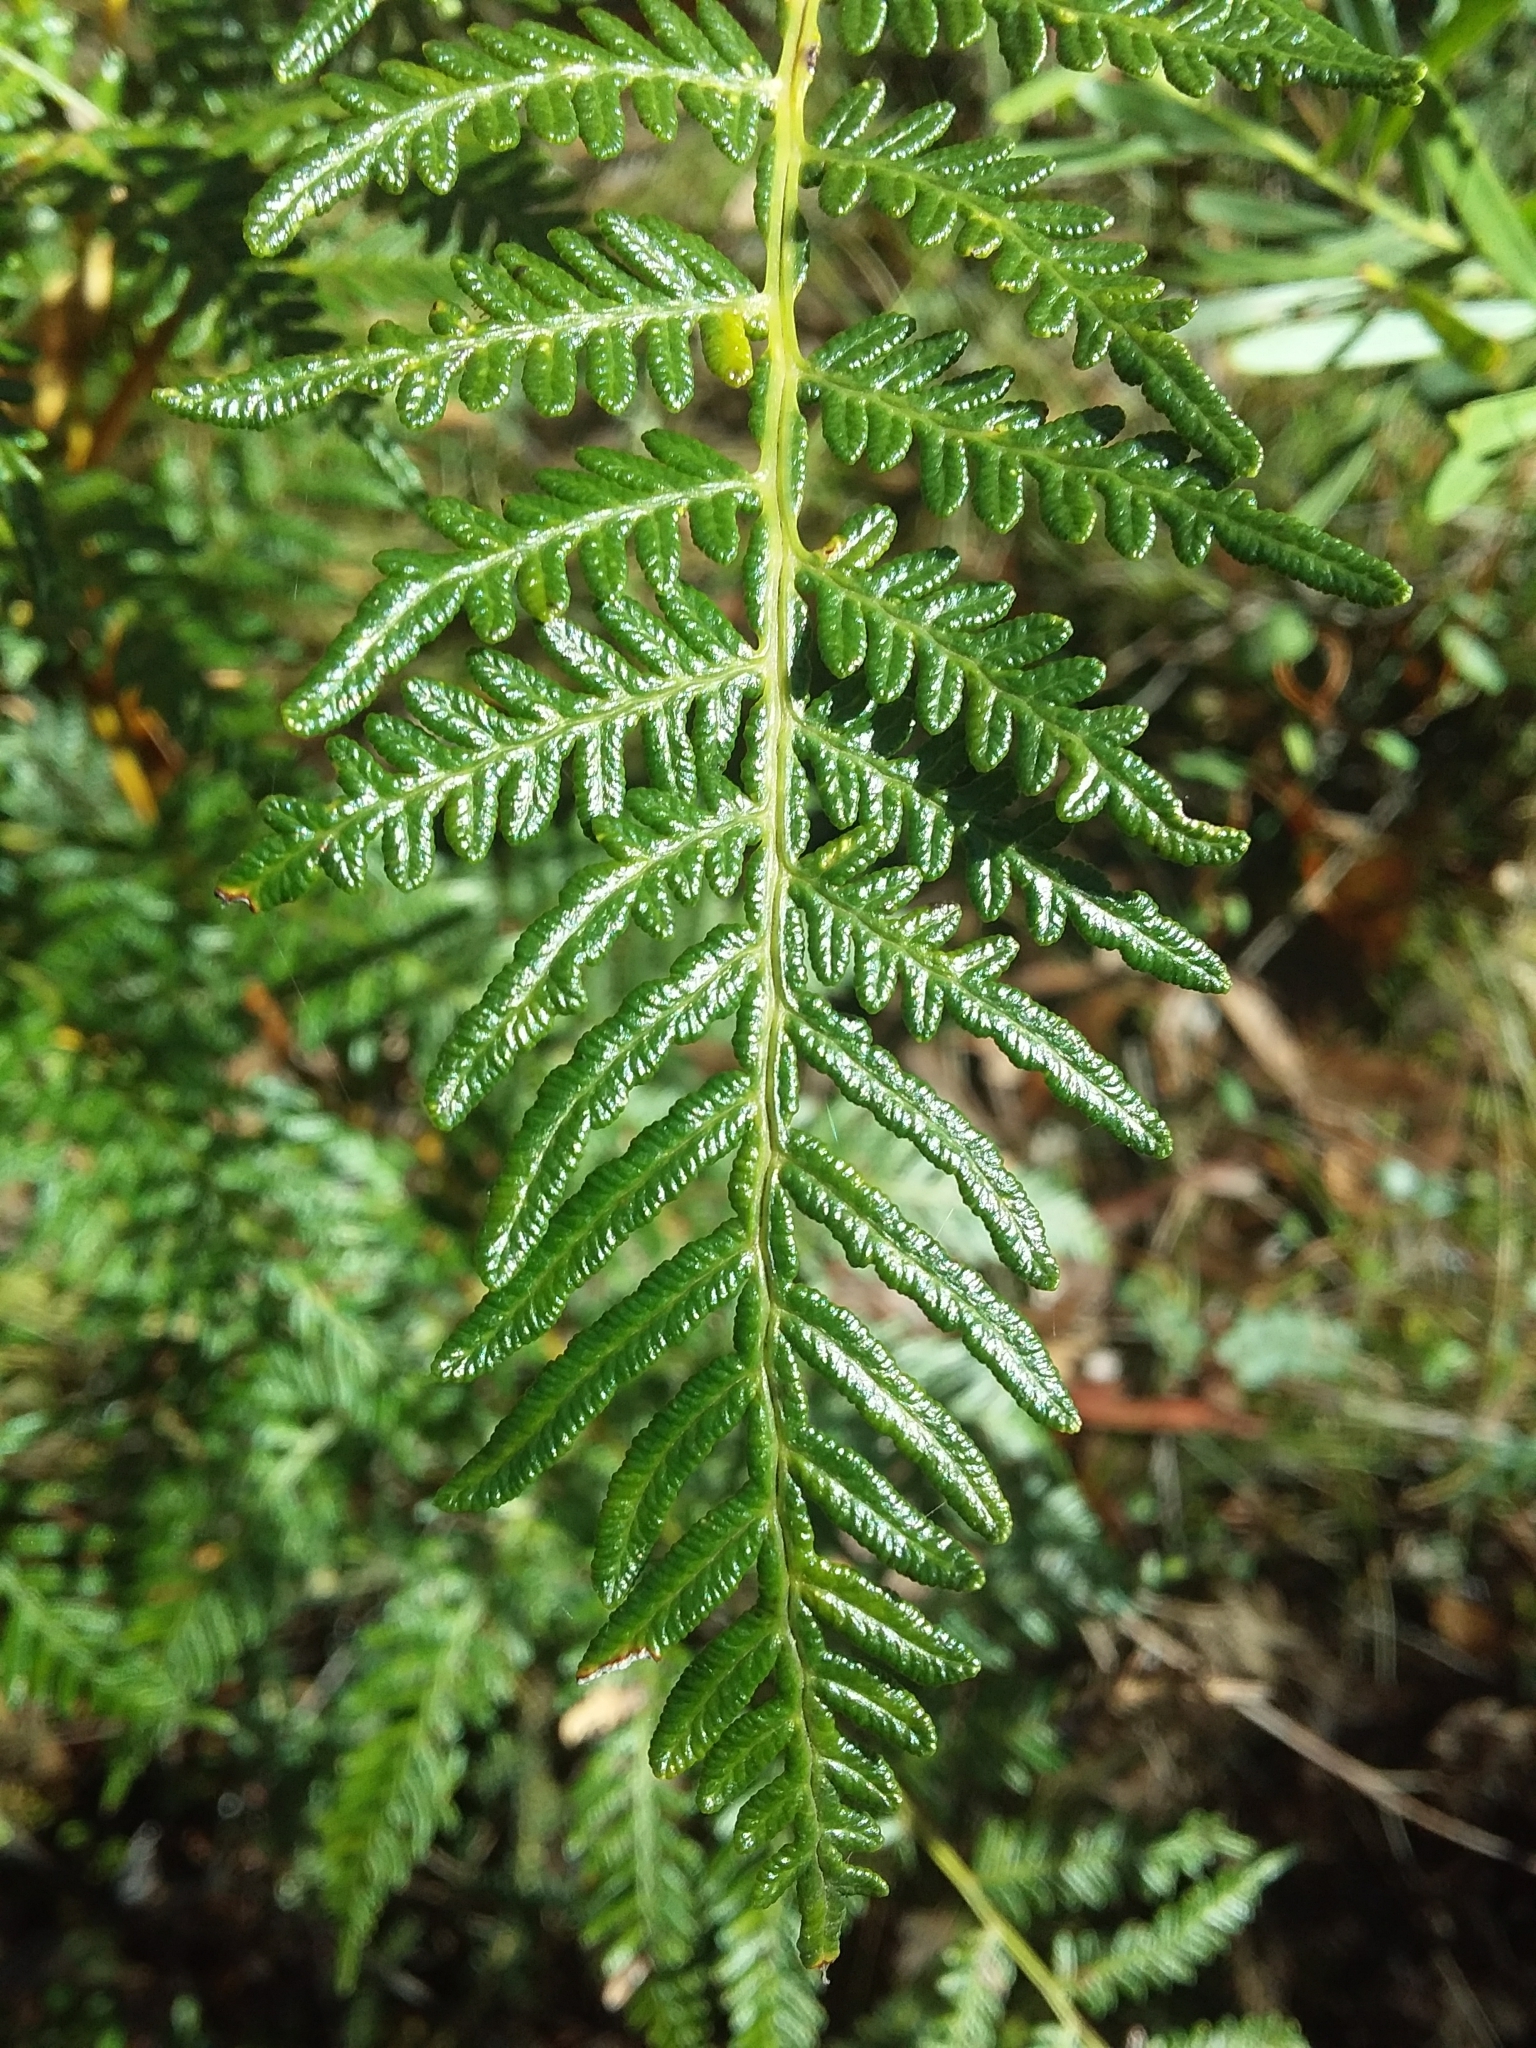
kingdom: Plantae
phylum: Tracheophyta
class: Polypodiopsida
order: Polypodiales
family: Dennstaedtiaceae
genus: Pteridium
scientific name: Pteridium esculentum
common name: Bracken fern
